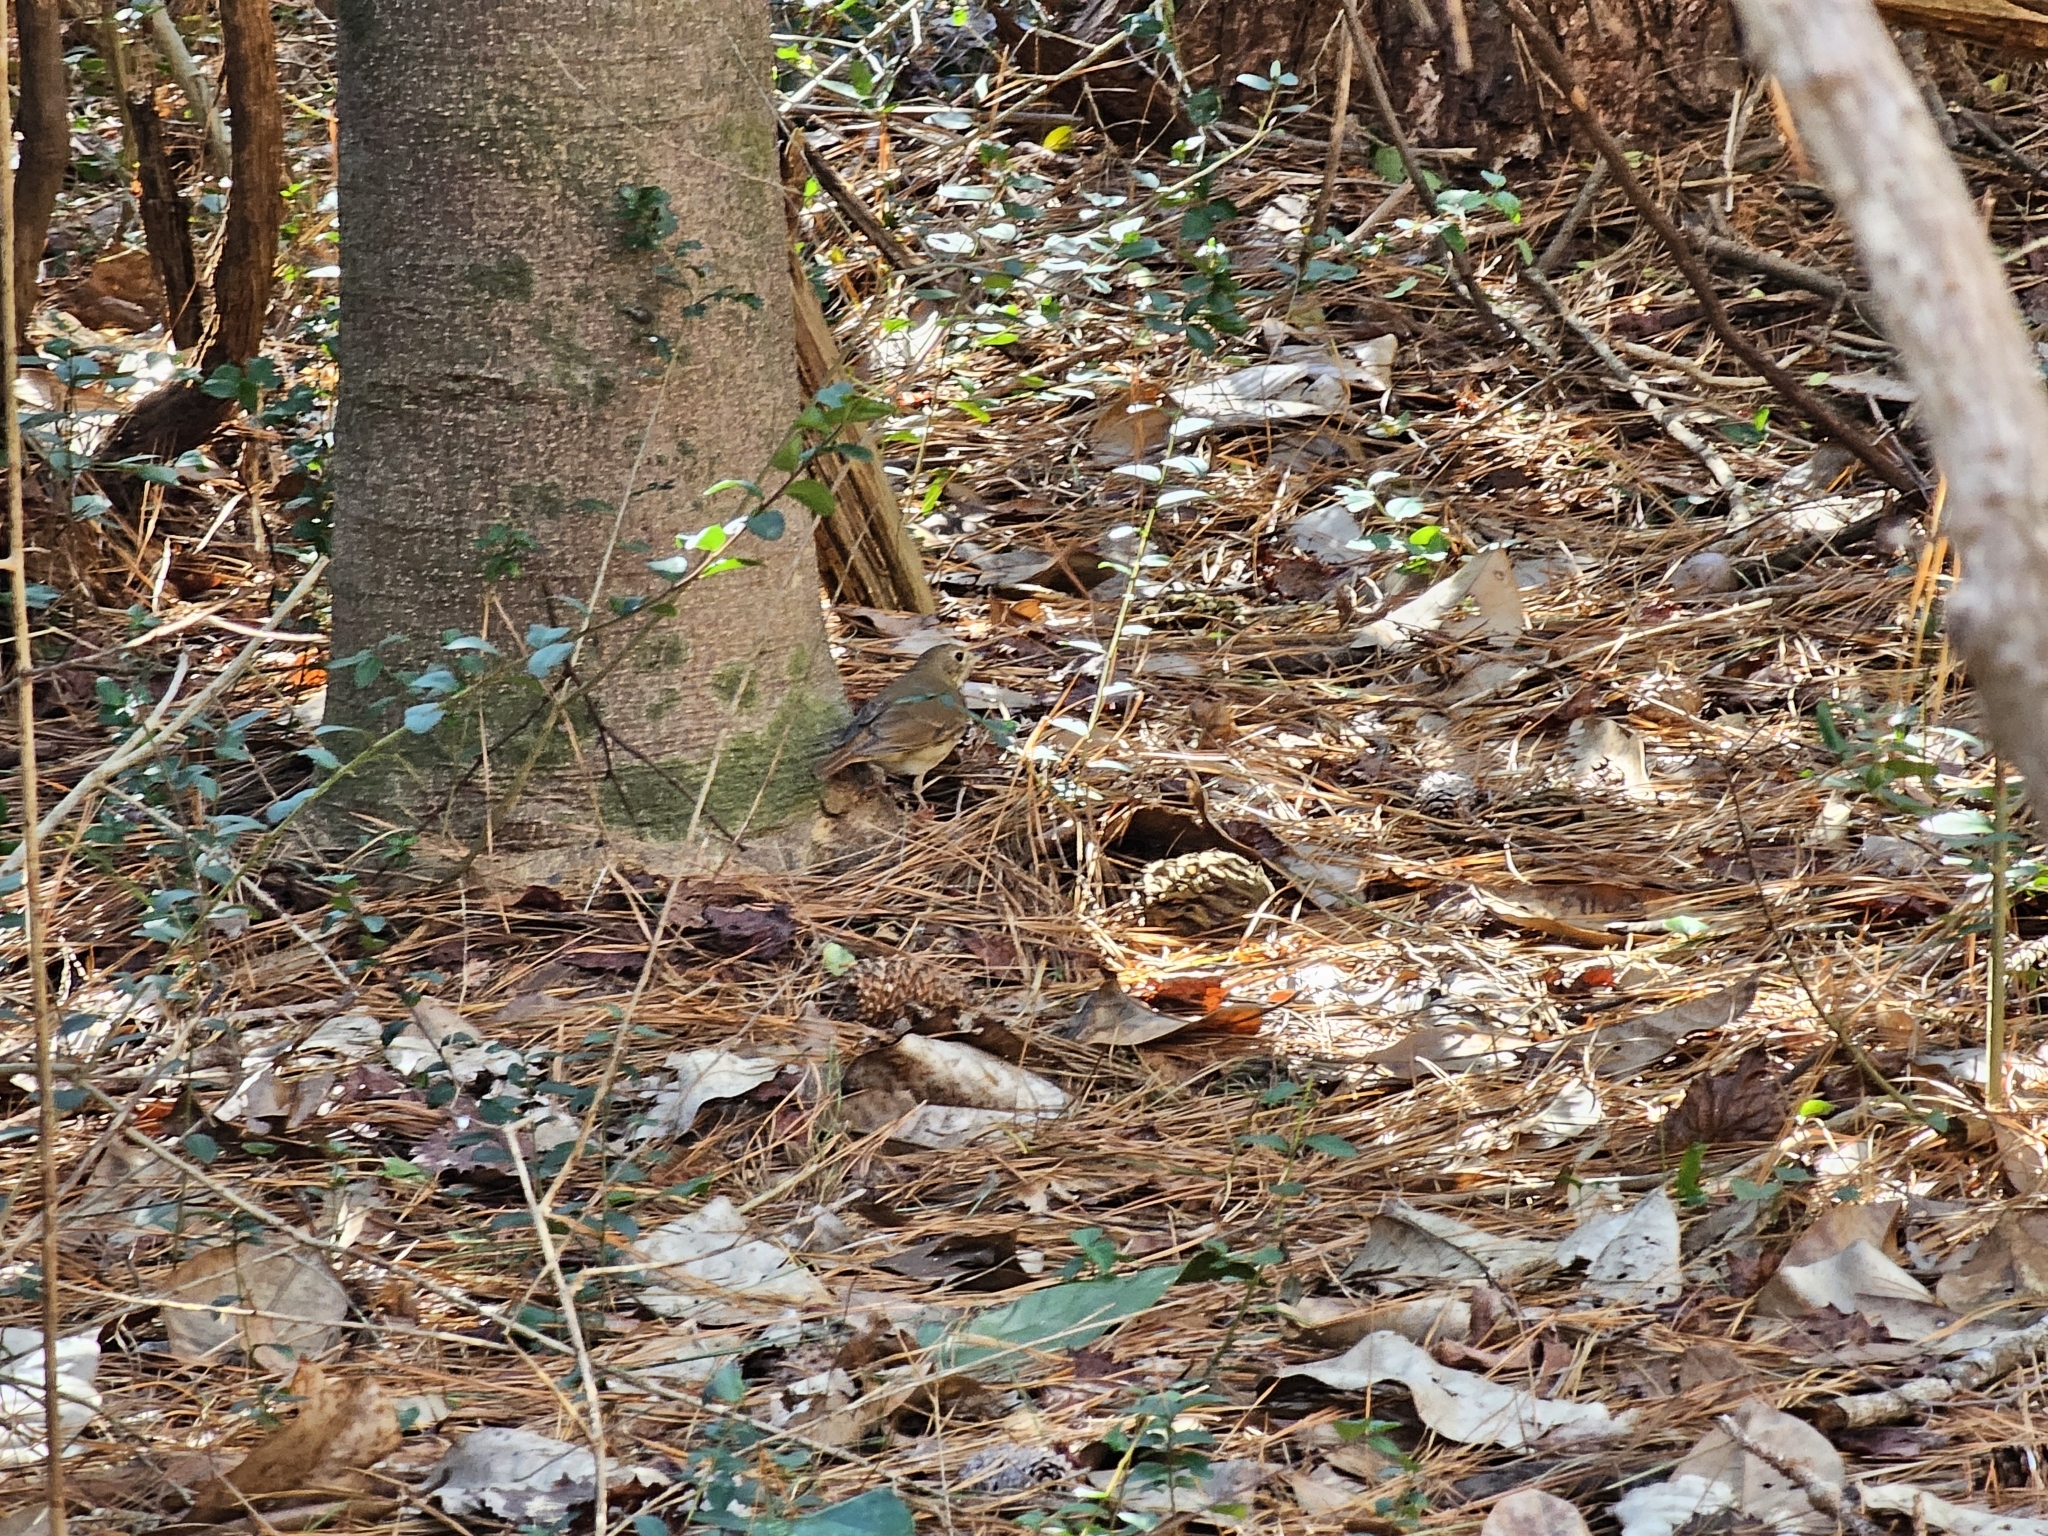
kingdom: Animalia
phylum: Chordata
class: Aves
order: Passeriformes
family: Turdidae
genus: Catharus
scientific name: Catharus guttatus
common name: Hermit thrush
